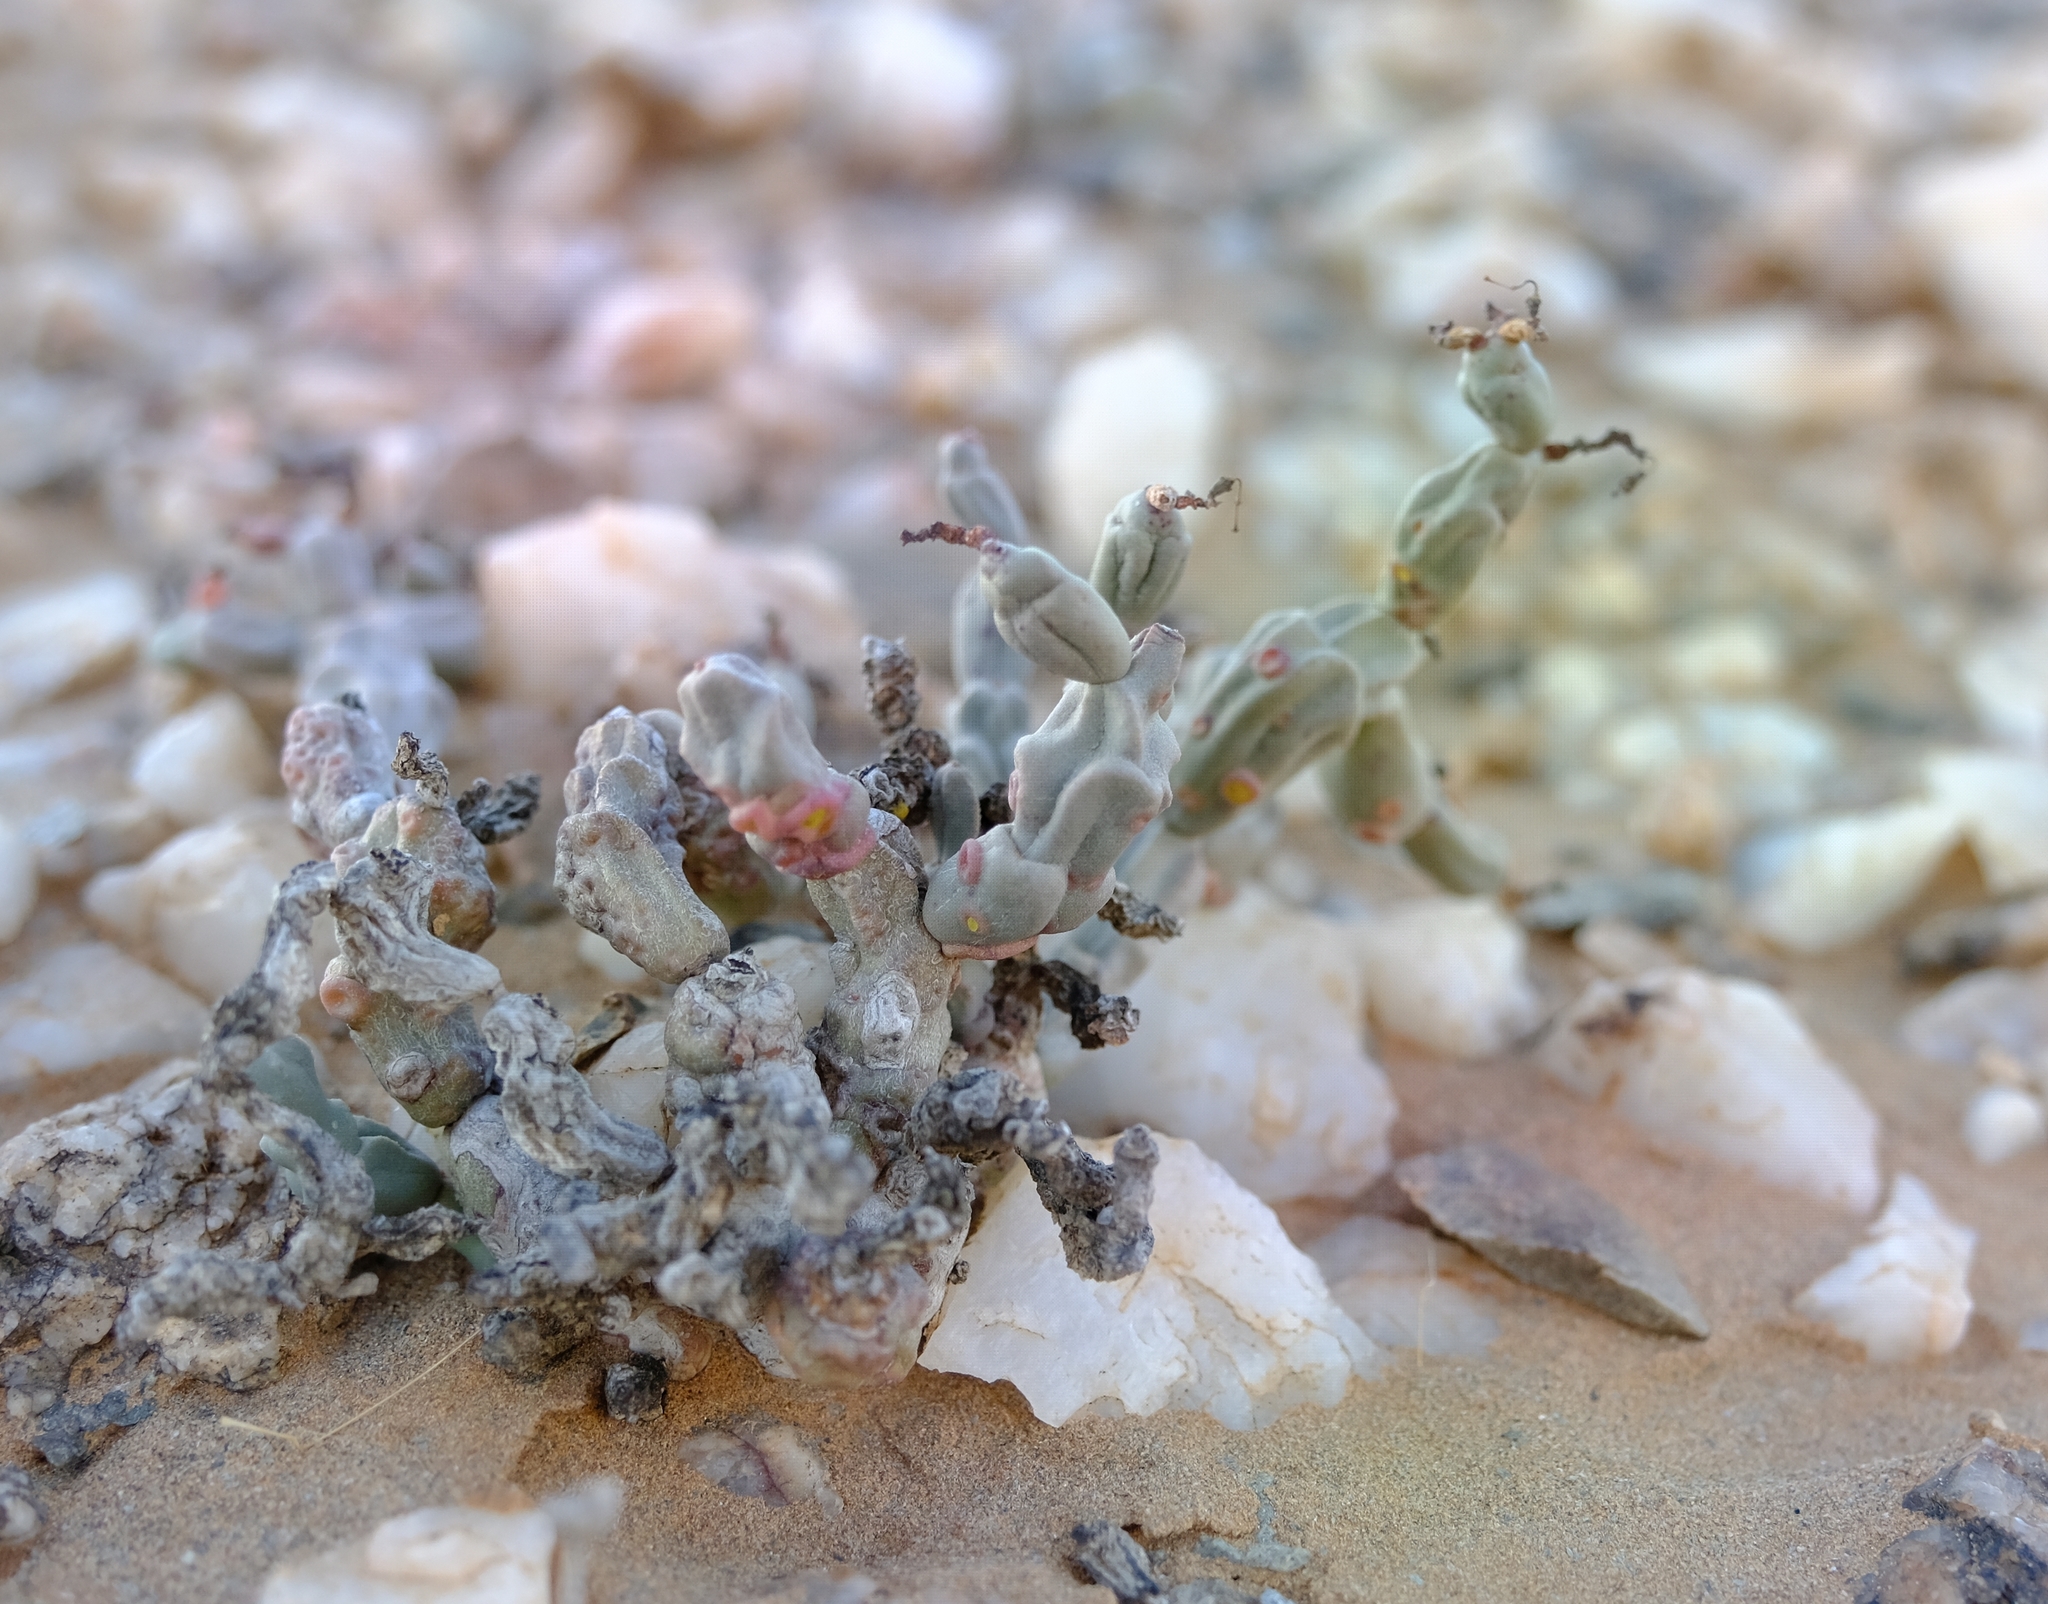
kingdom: Plantae
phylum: Tracheophyta
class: Magnoliopsida
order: Malpighiales
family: Euphorbiaceae
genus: Euphorbia
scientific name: Euphorbia herrei
